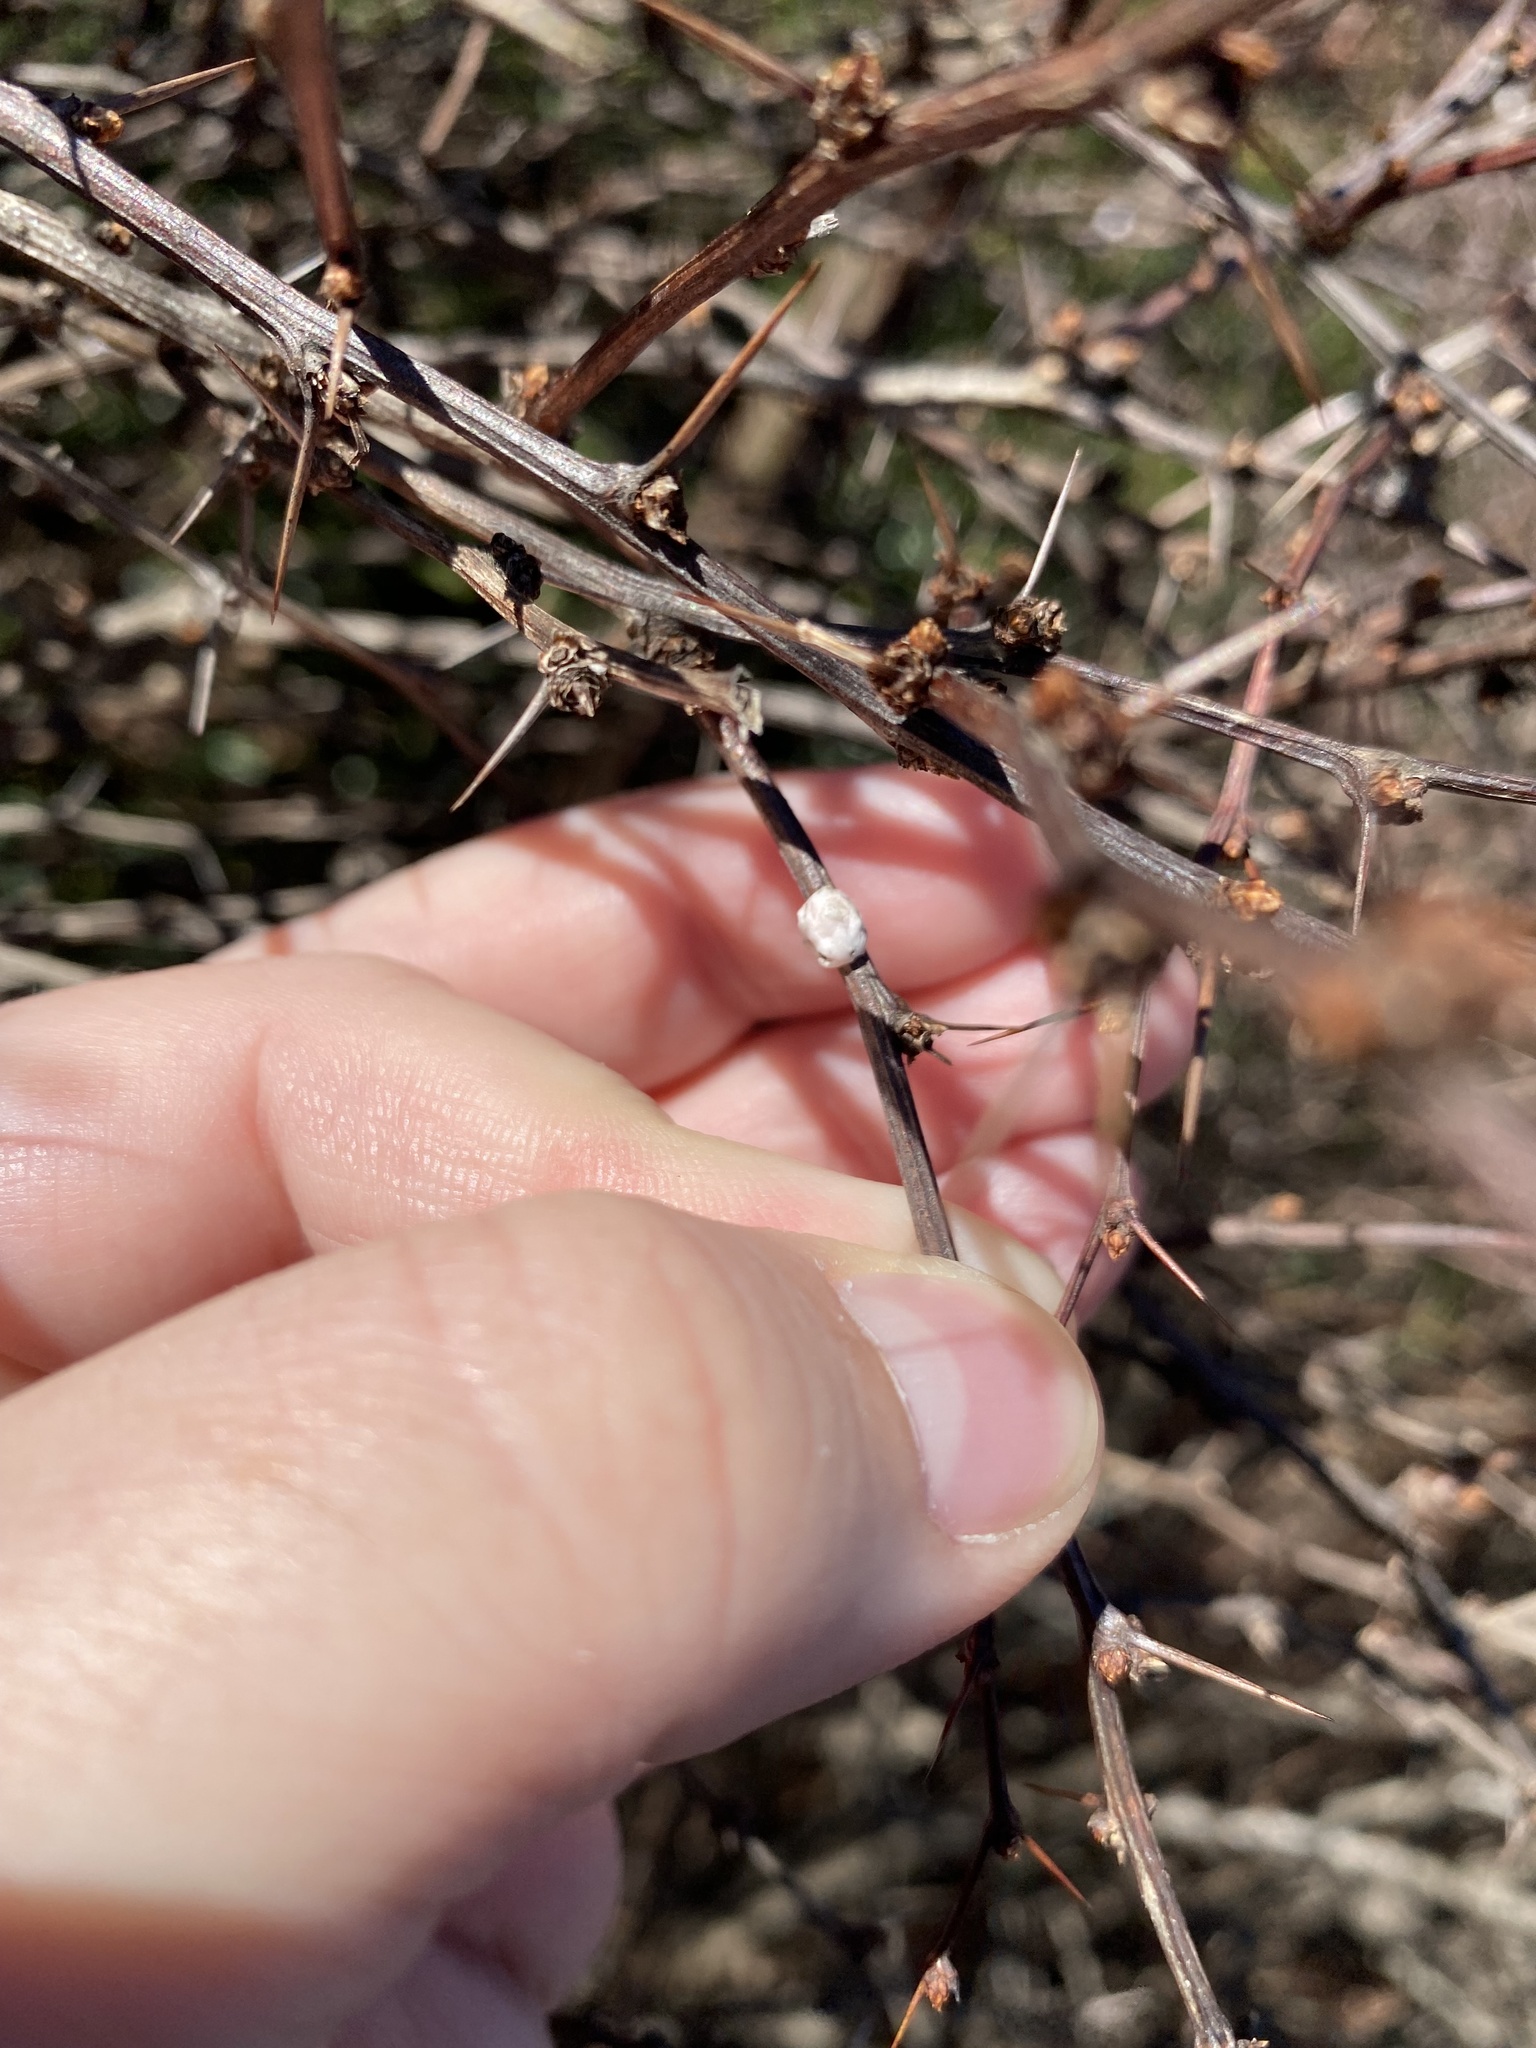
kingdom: Animalia
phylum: Arthropoda
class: Insecta
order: Hemiptera
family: Coccidae
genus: Ceroplastes
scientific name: Ceroplastes ceriferus
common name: Indian wax scale
